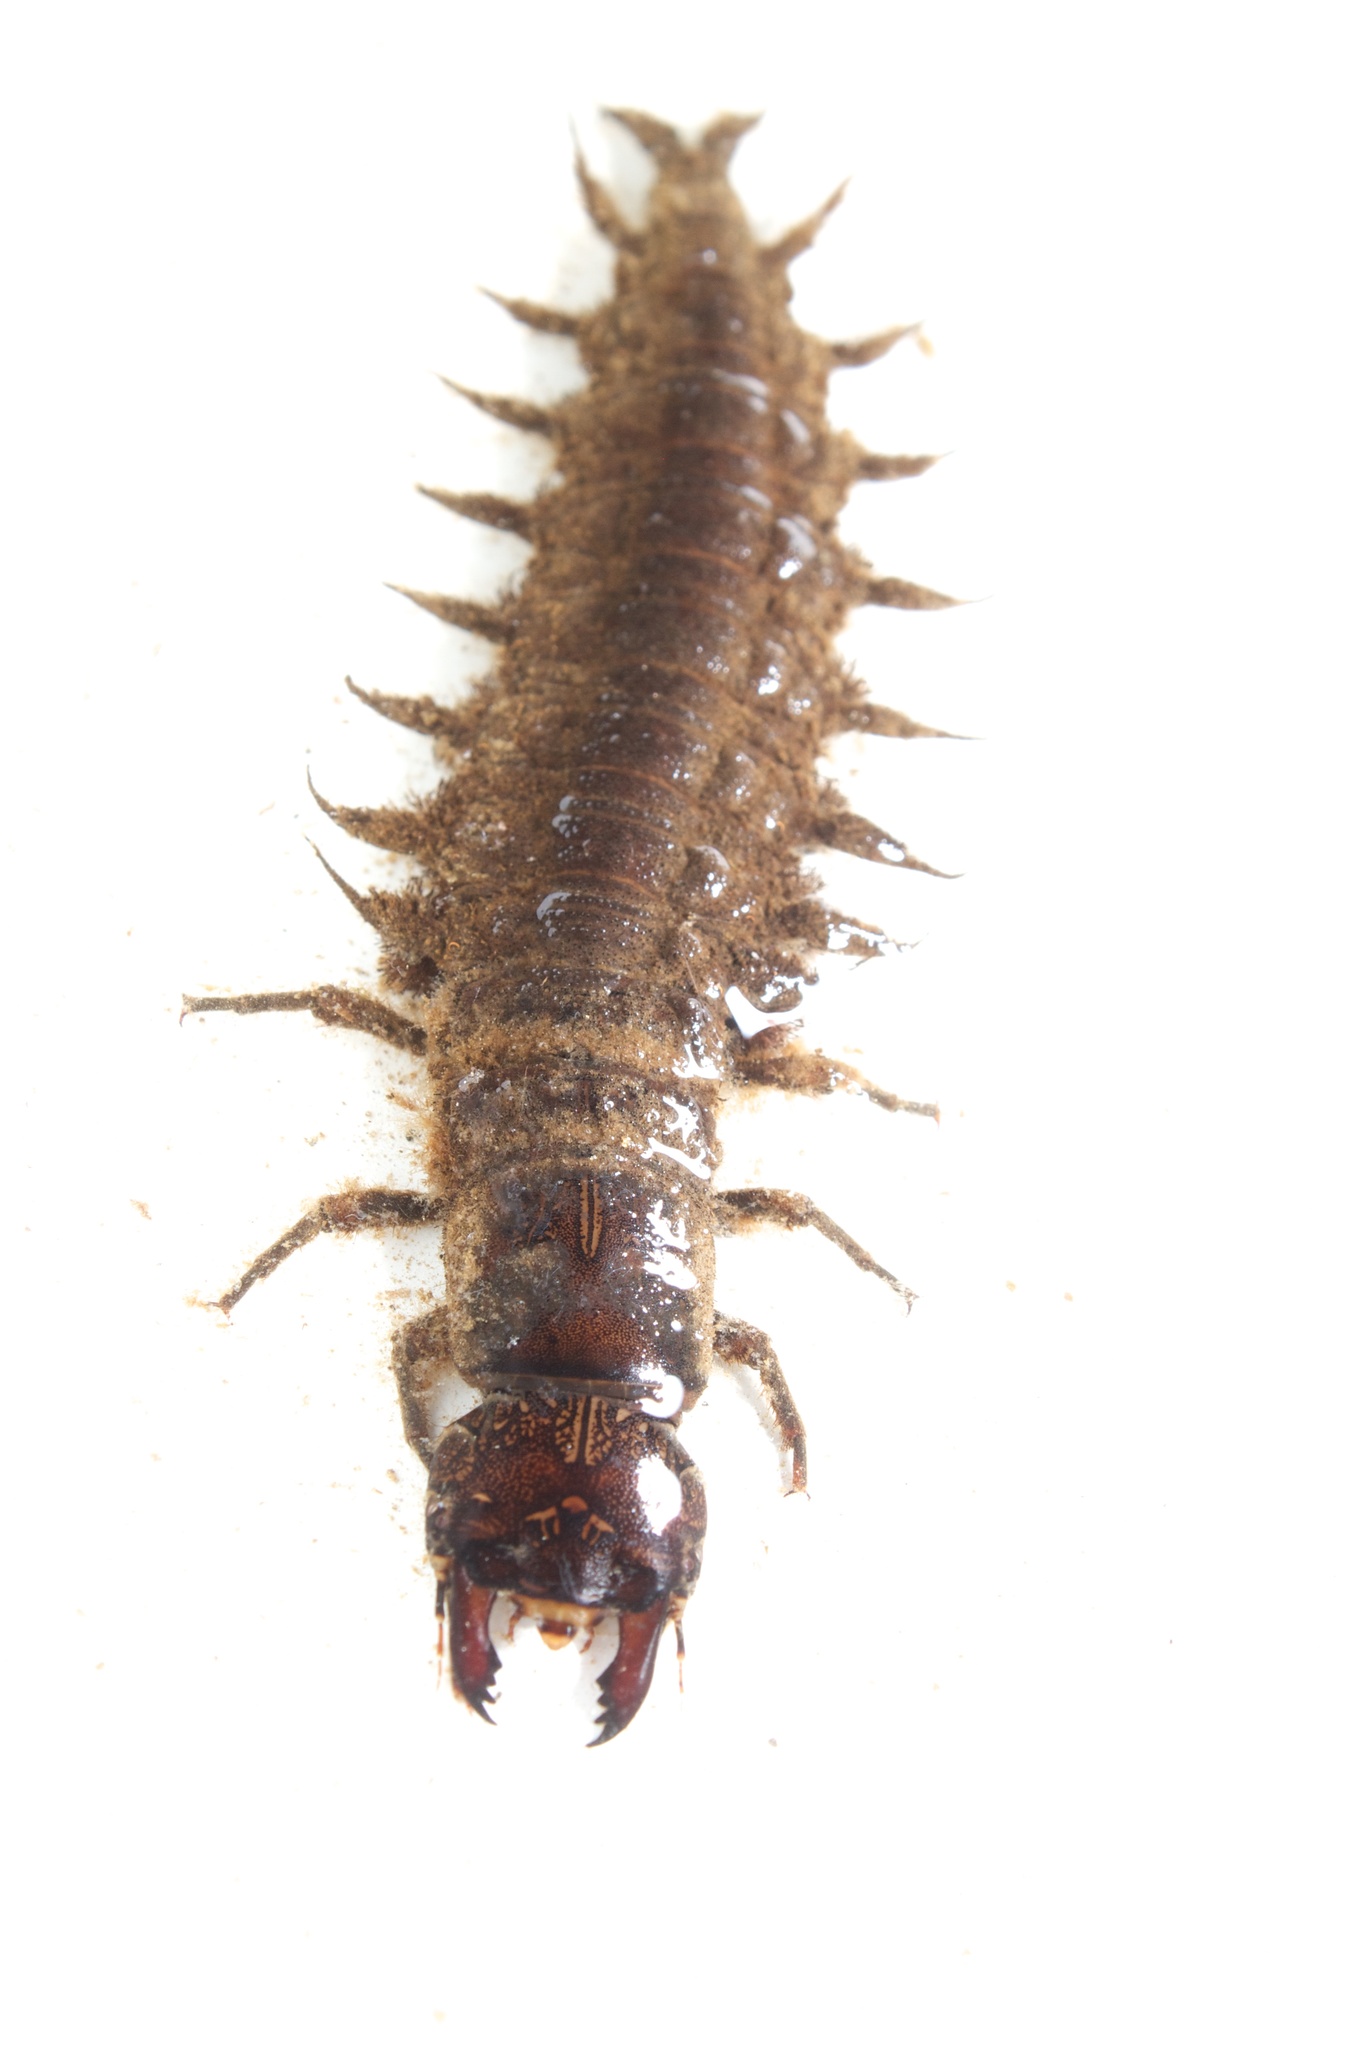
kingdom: Animalia
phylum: Arthropoda
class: Insecta
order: Megaloptera
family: Corydalidae
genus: Corydalus
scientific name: Corydalus cornutus
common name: Dobsonfly
